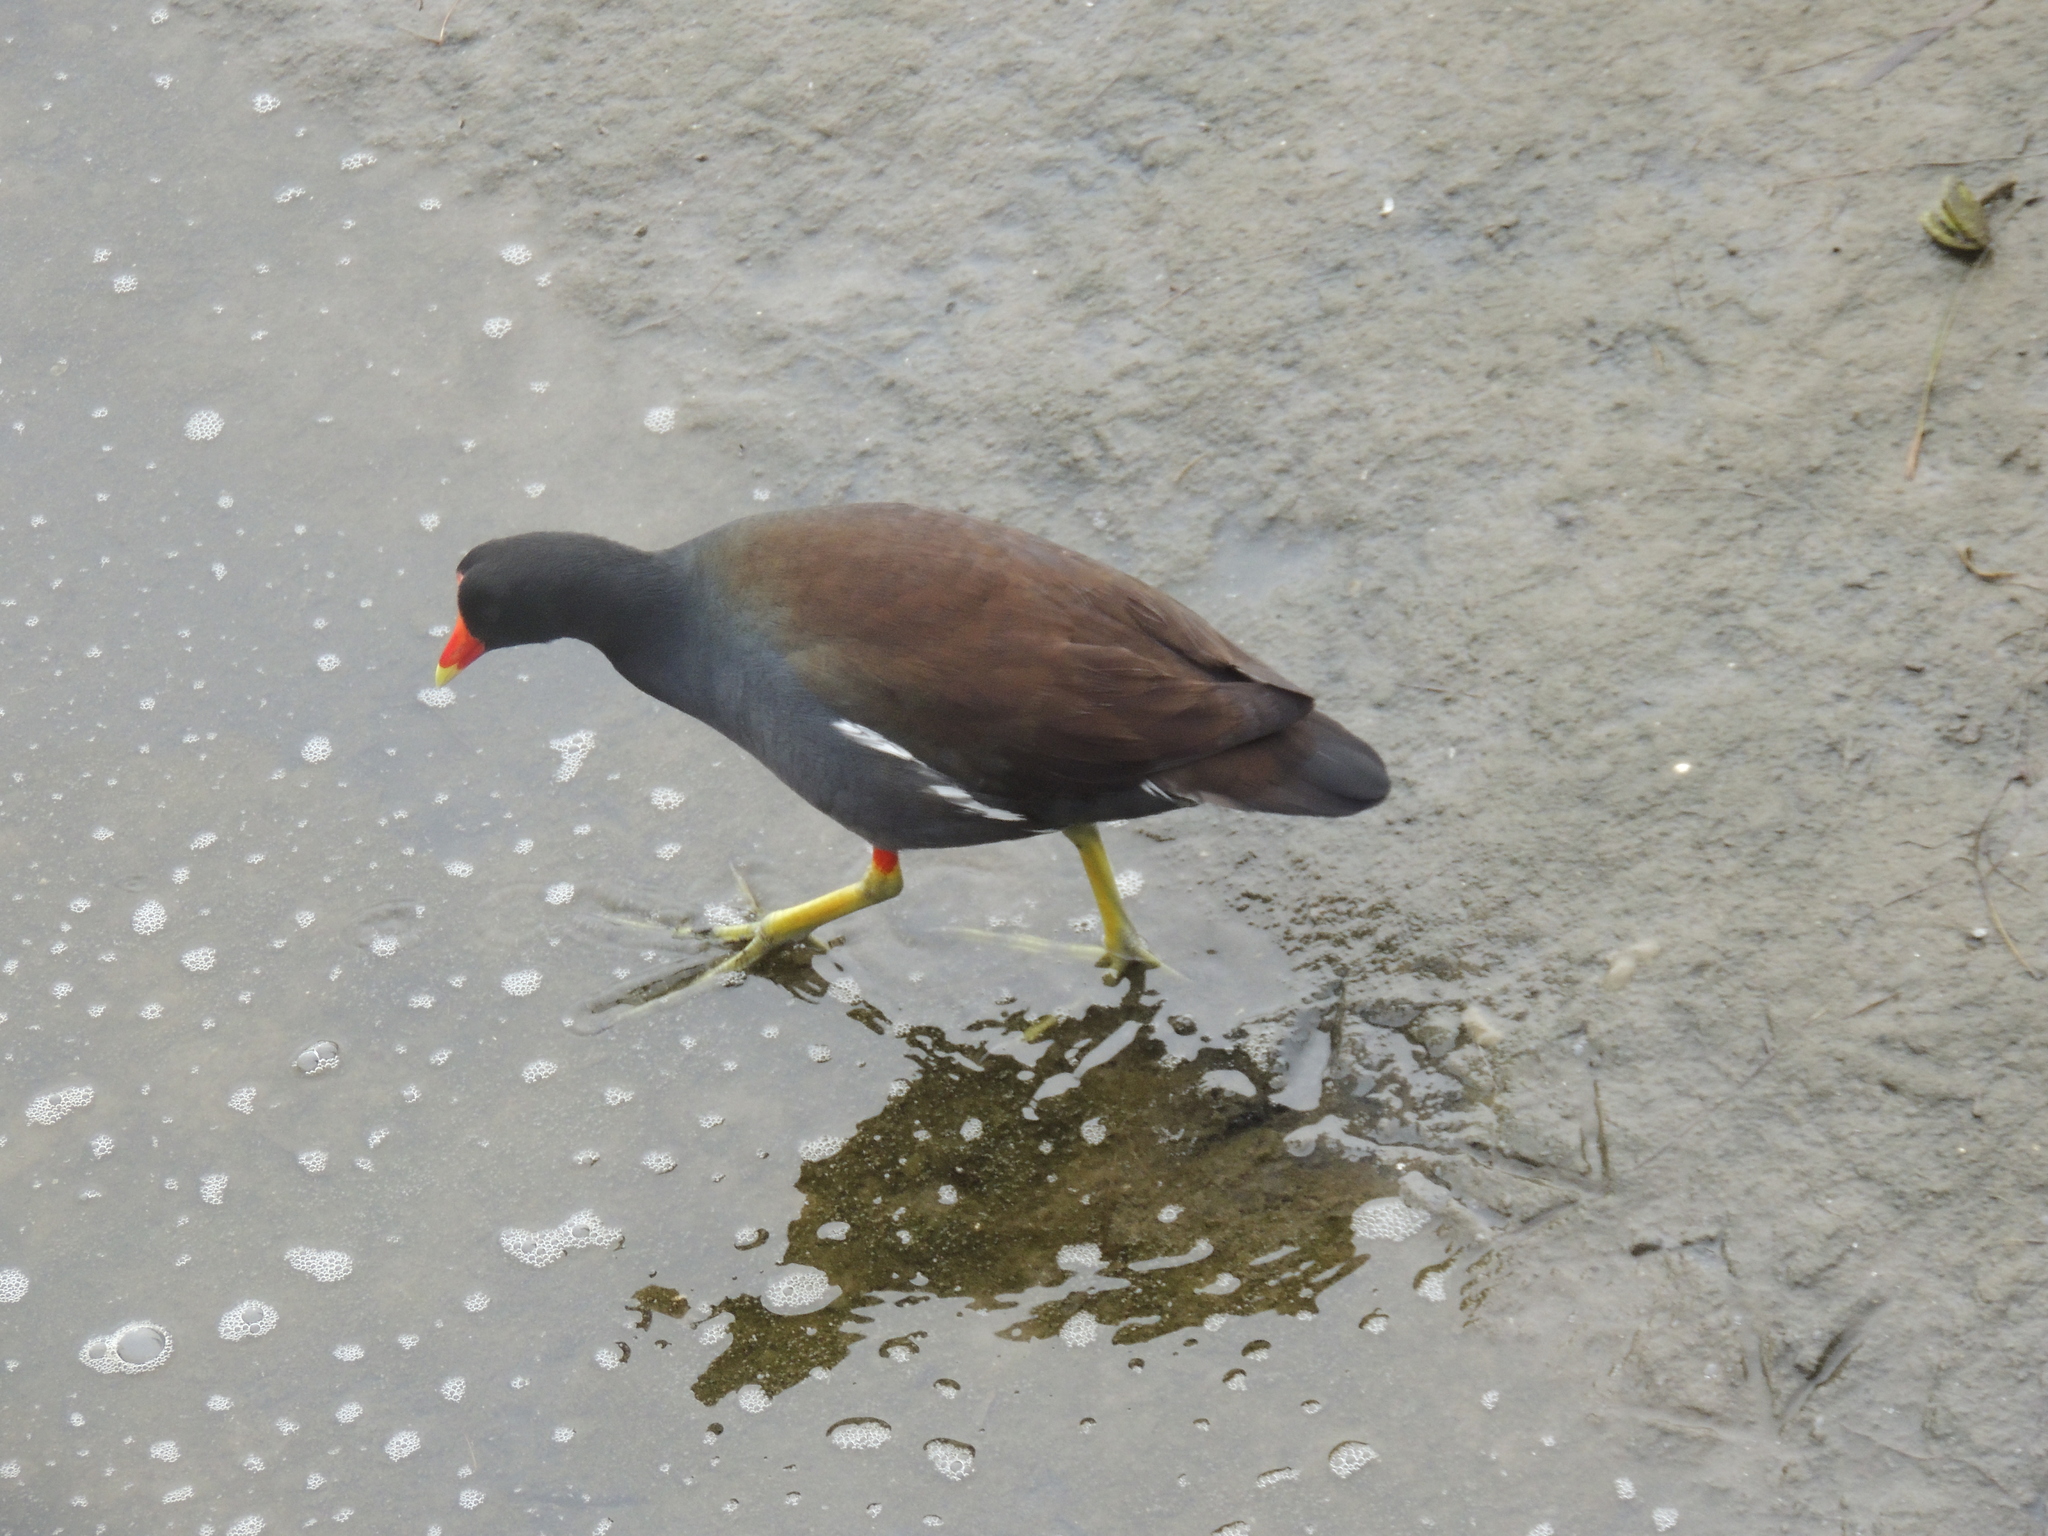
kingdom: Animalia
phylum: Chordata
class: Aves
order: Gruiformes
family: Rallidae
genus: Gallinula
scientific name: Gallinula chloropus
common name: Common moorhen
